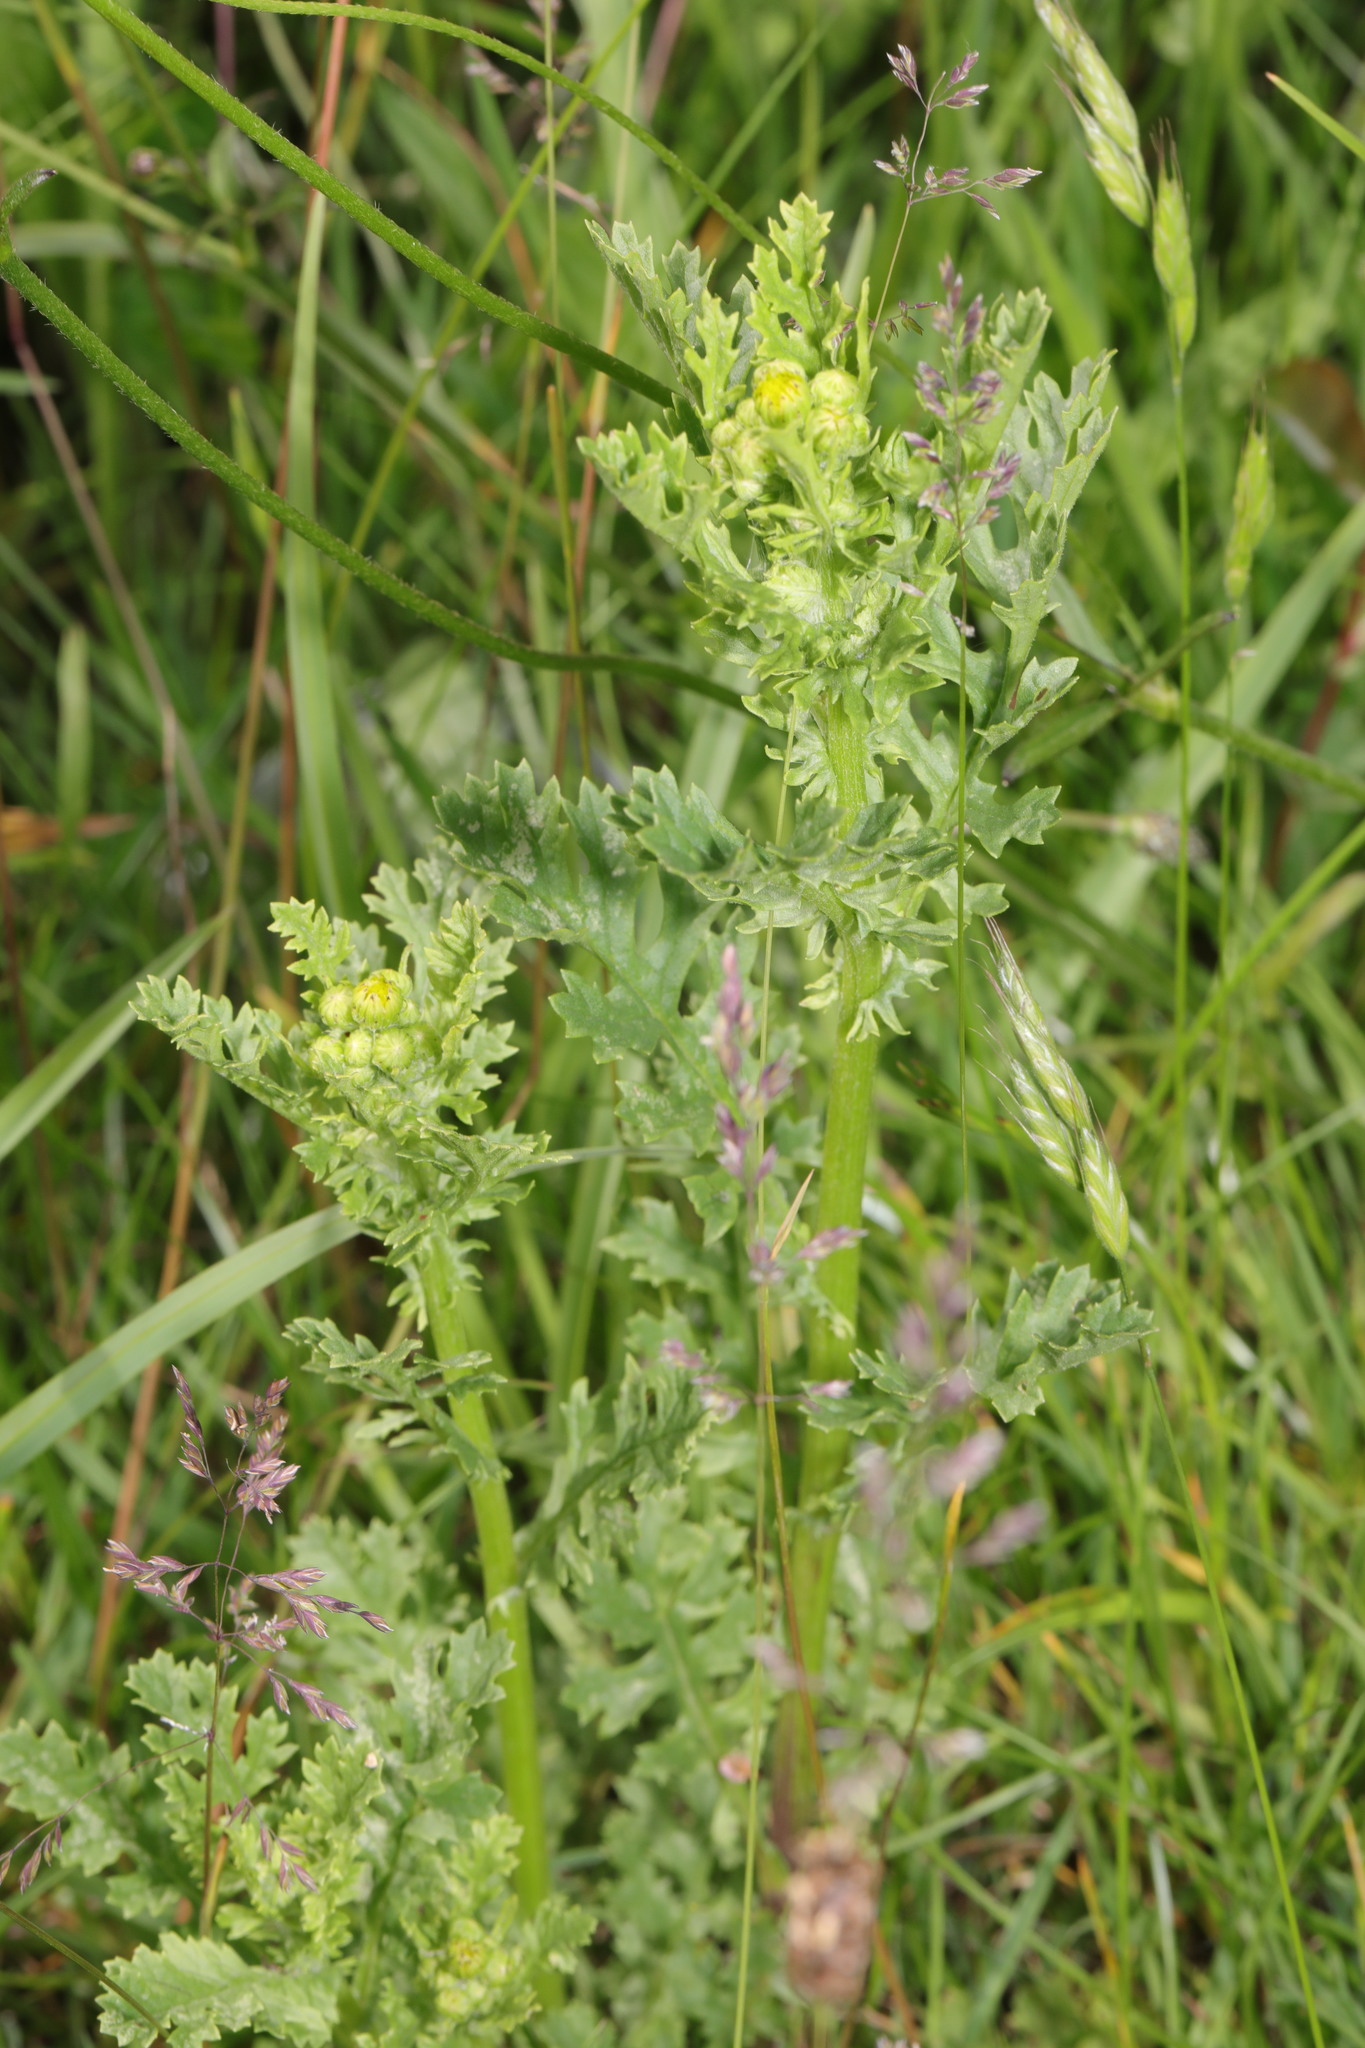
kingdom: Plantae
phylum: Tracheophyta
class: Magnoliopsida
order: Asterales
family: Asteraceae
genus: Jacobaea
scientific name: Jacobaea vulgaris
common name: Stinking willie
